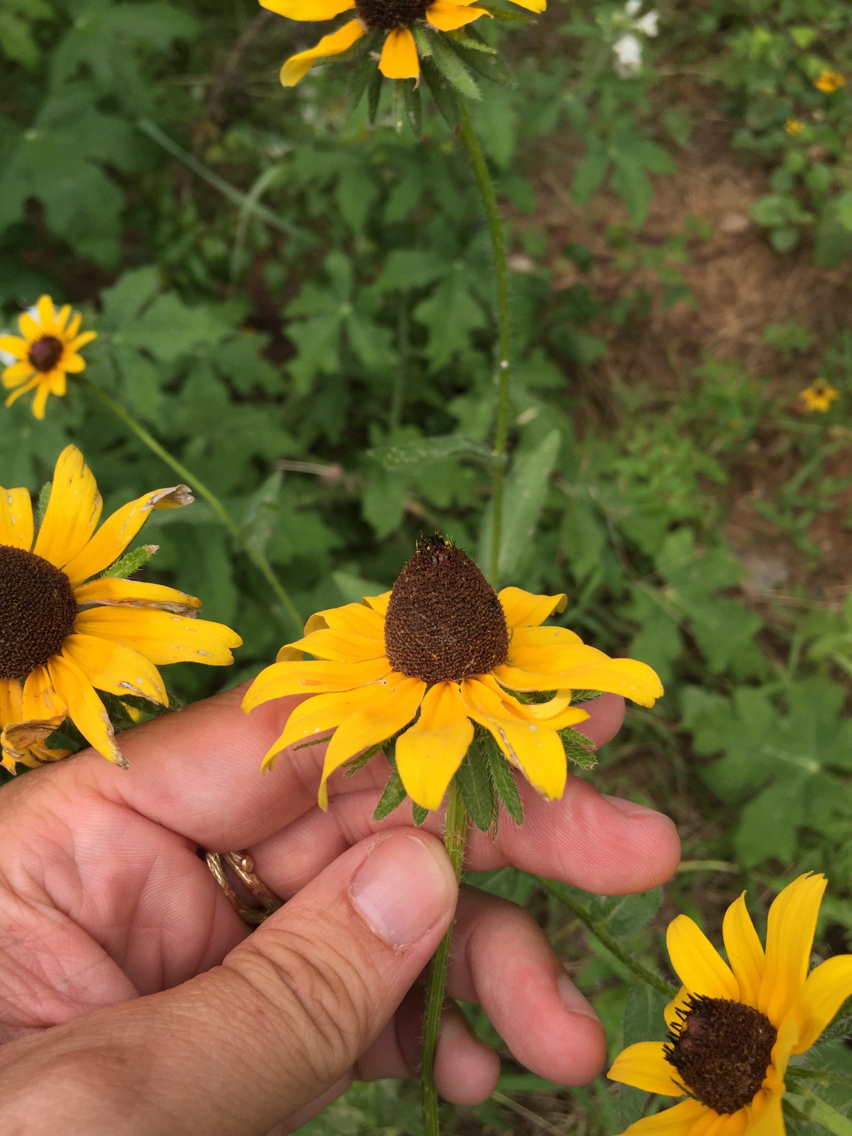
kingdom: Plantae
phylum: Tracheophyta
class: Magnoliopsida
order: Asterales
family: Asteraceae
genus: Rudbeckia
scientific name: Rudbeckia hirta
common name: Black-eyed-susan
